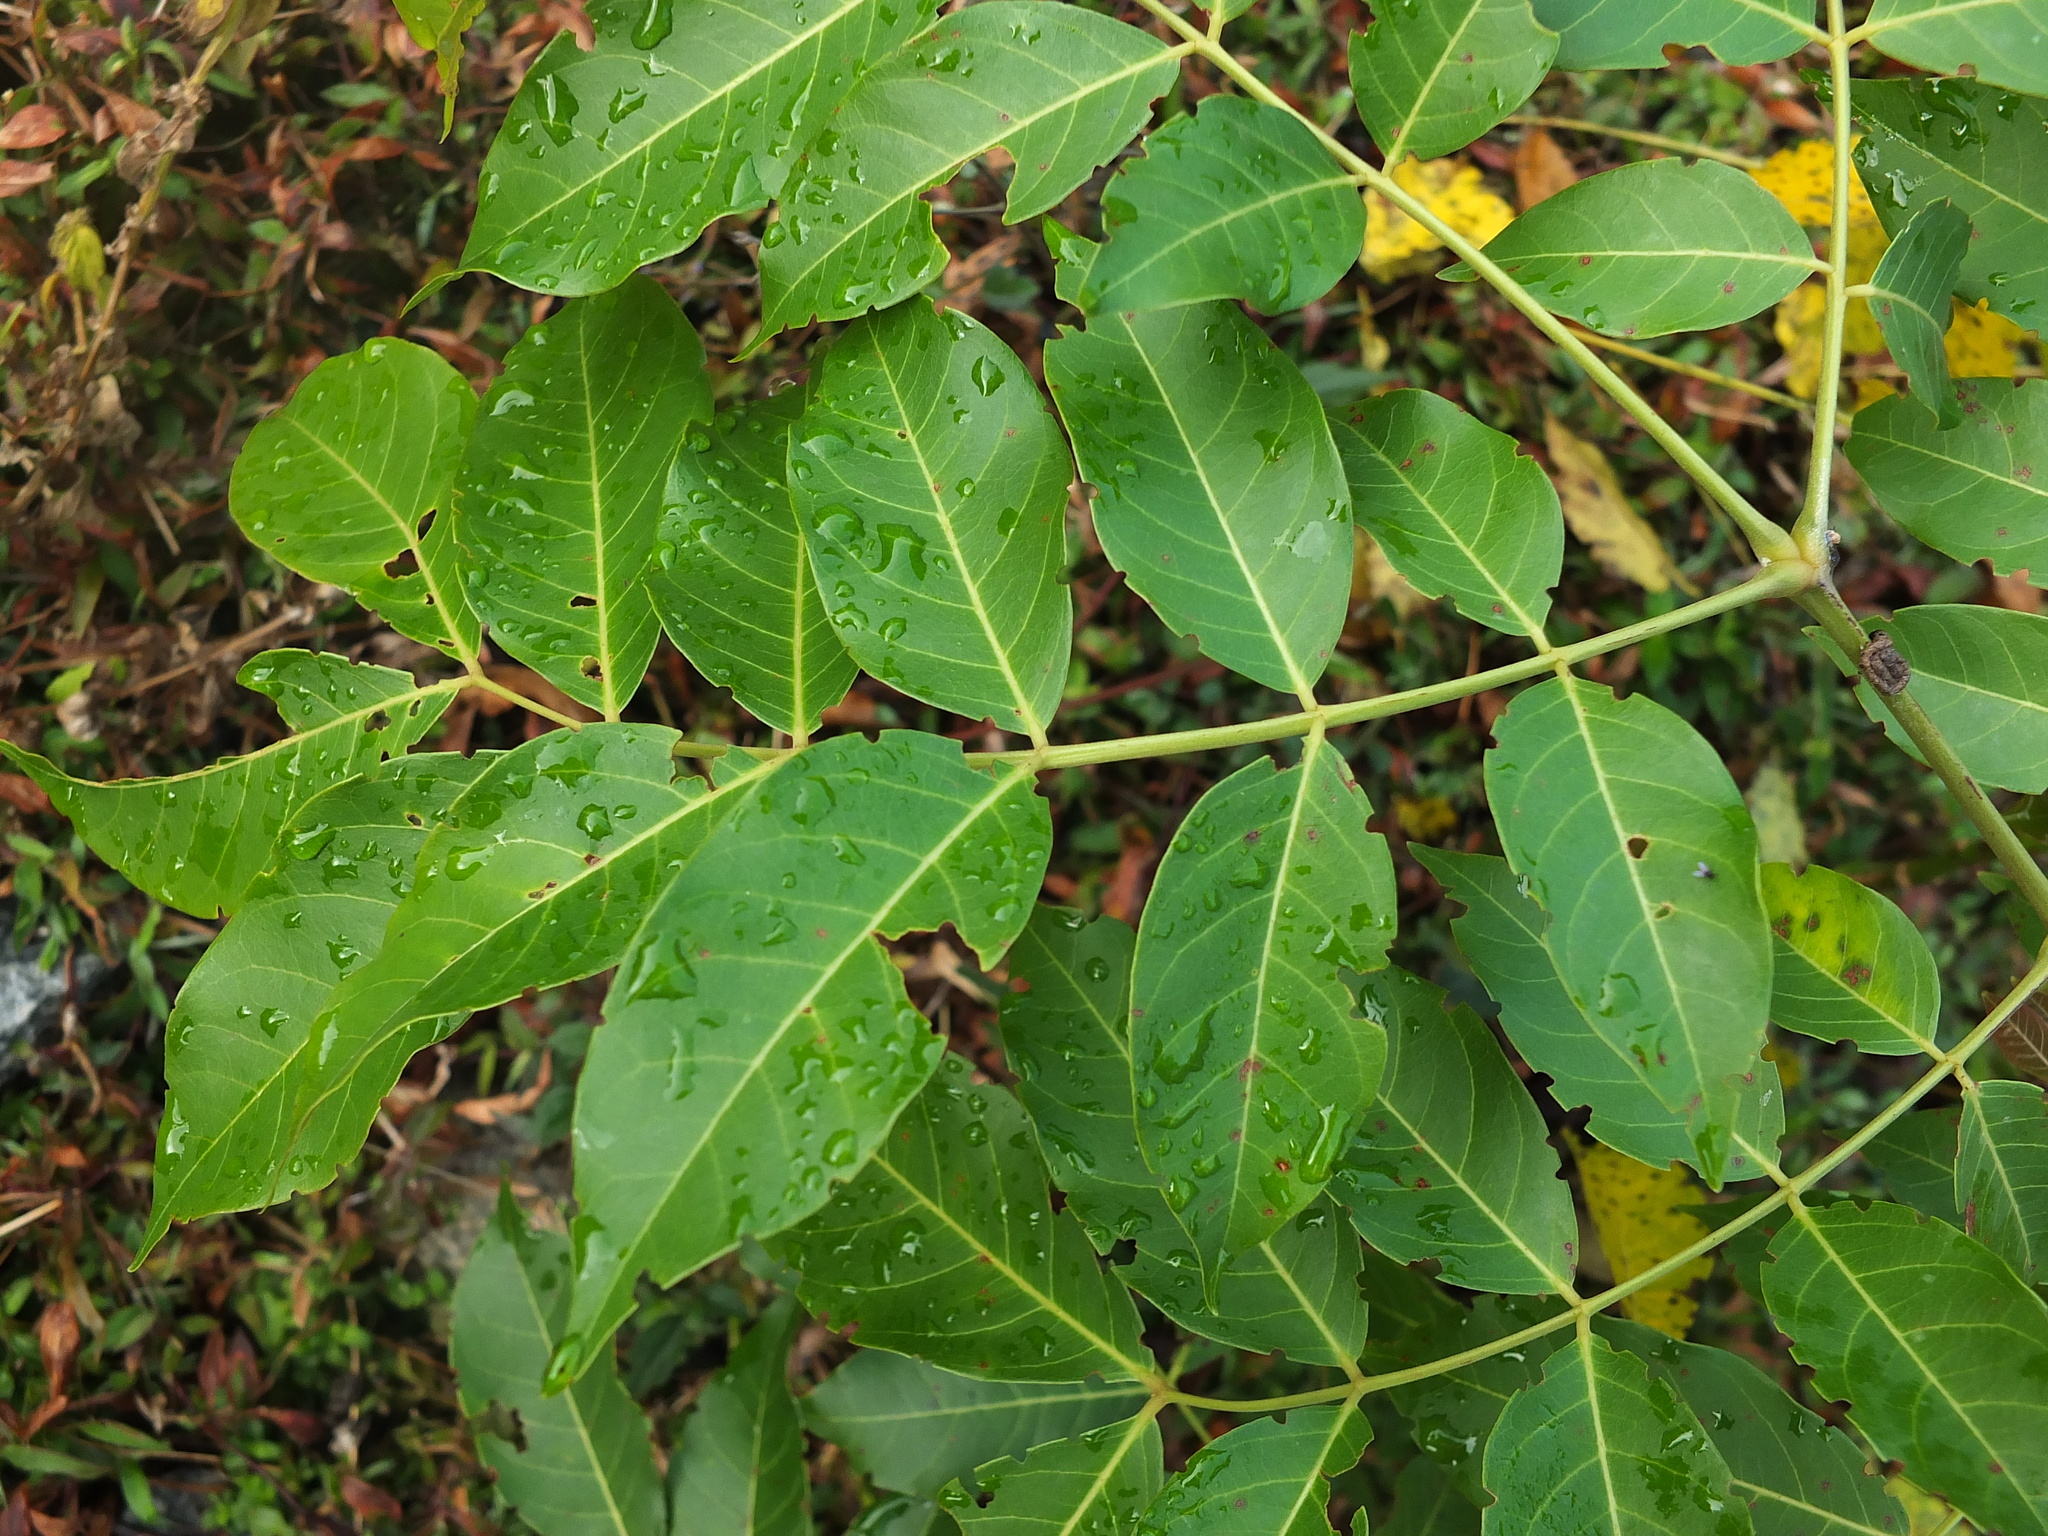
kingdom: Plantae
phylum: Tracheophyta
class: Magnoliopsida
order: Fabales
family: Fabaceae
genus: Acrocarpus
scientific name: Acrocarpus fraxinifolius
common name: Kenya coffeeshade
